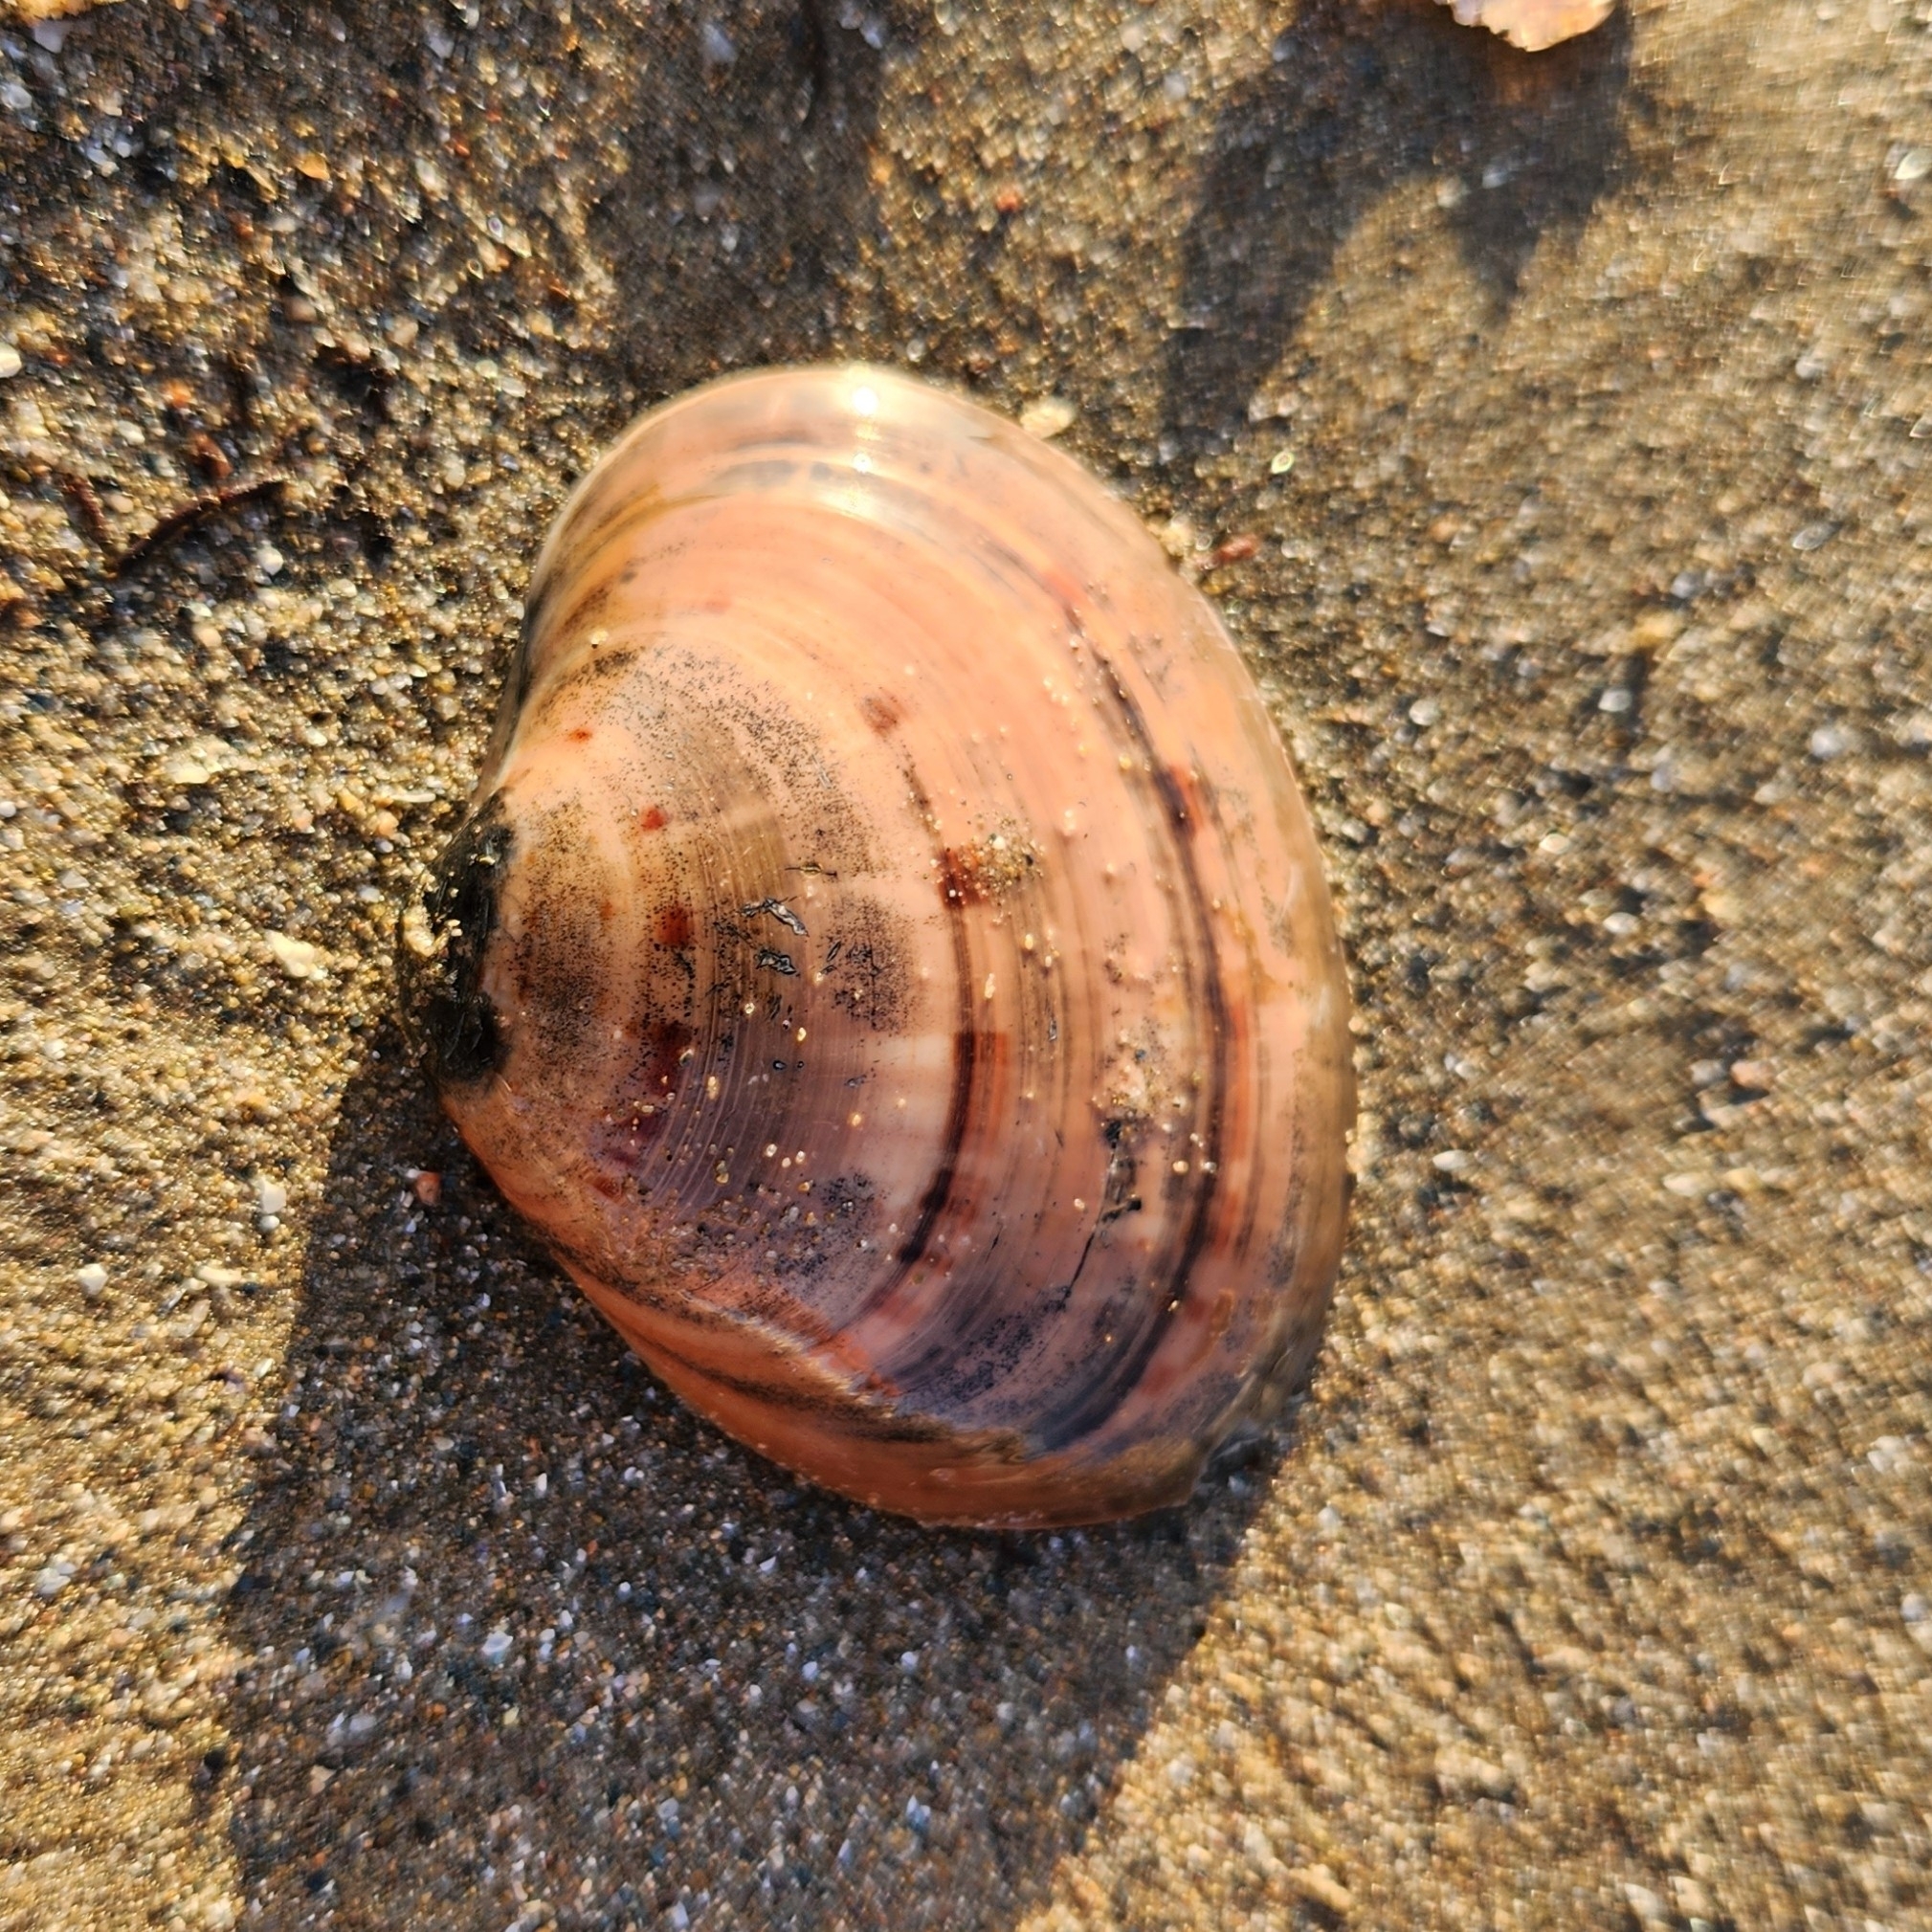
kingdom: Animalia
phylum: Mollusca
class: Bivalvia
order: Venerida
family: Veneridae
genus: Callista
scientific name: Callista chione
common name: Brown venus
